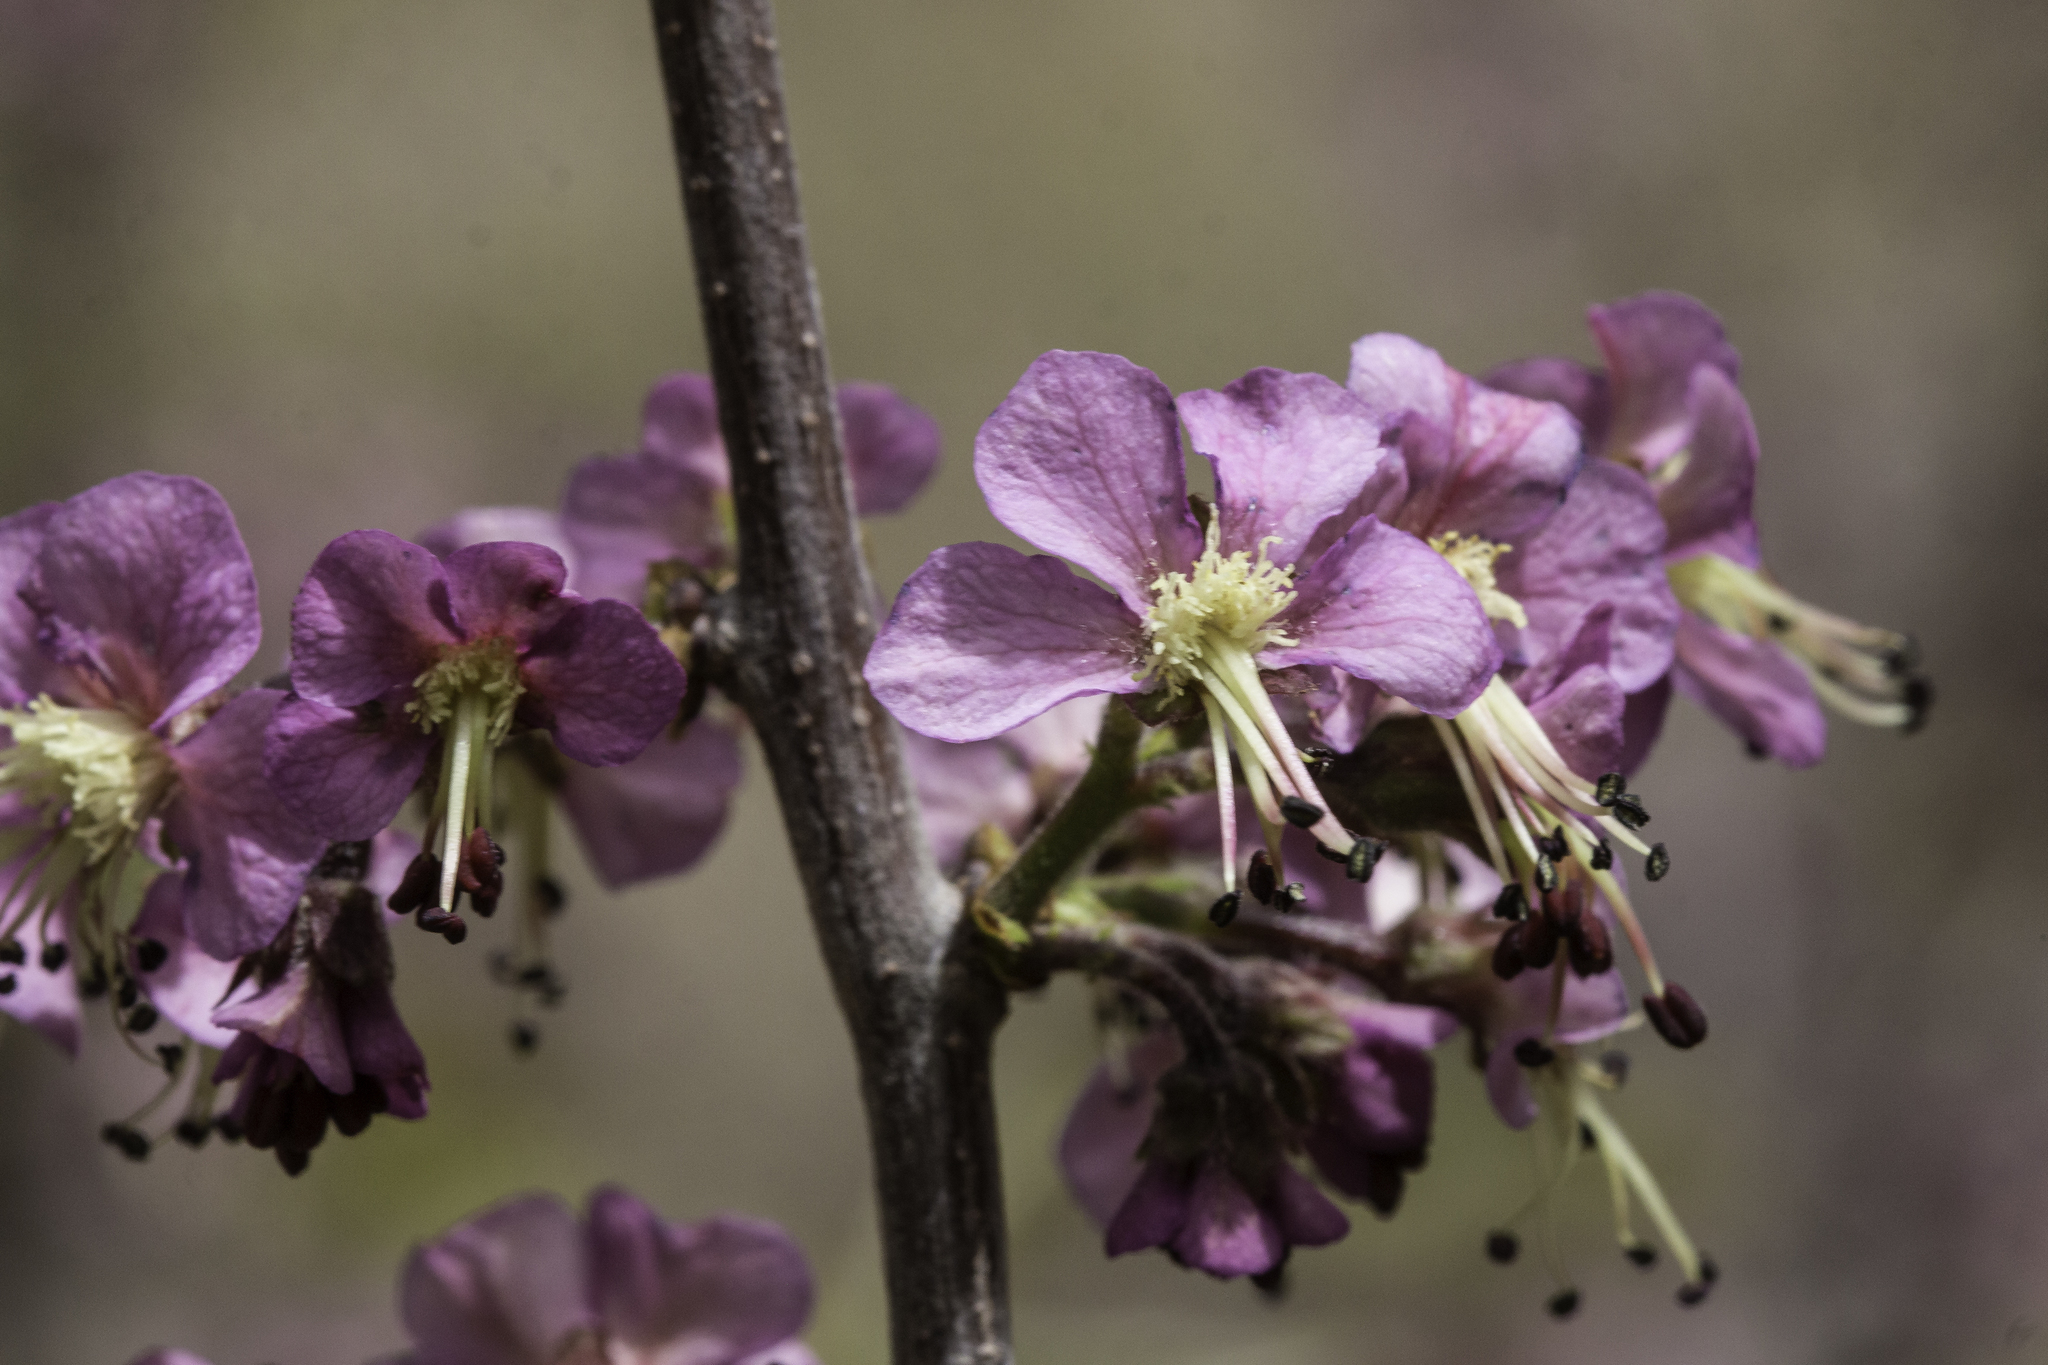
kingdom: Plantae
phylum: Tracheophyta
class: Magnoliopsida
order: Sapindales
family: Sapindaceae
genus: Ungnadia
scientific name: Ungnadia speciosa
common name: Texas-buckeye
